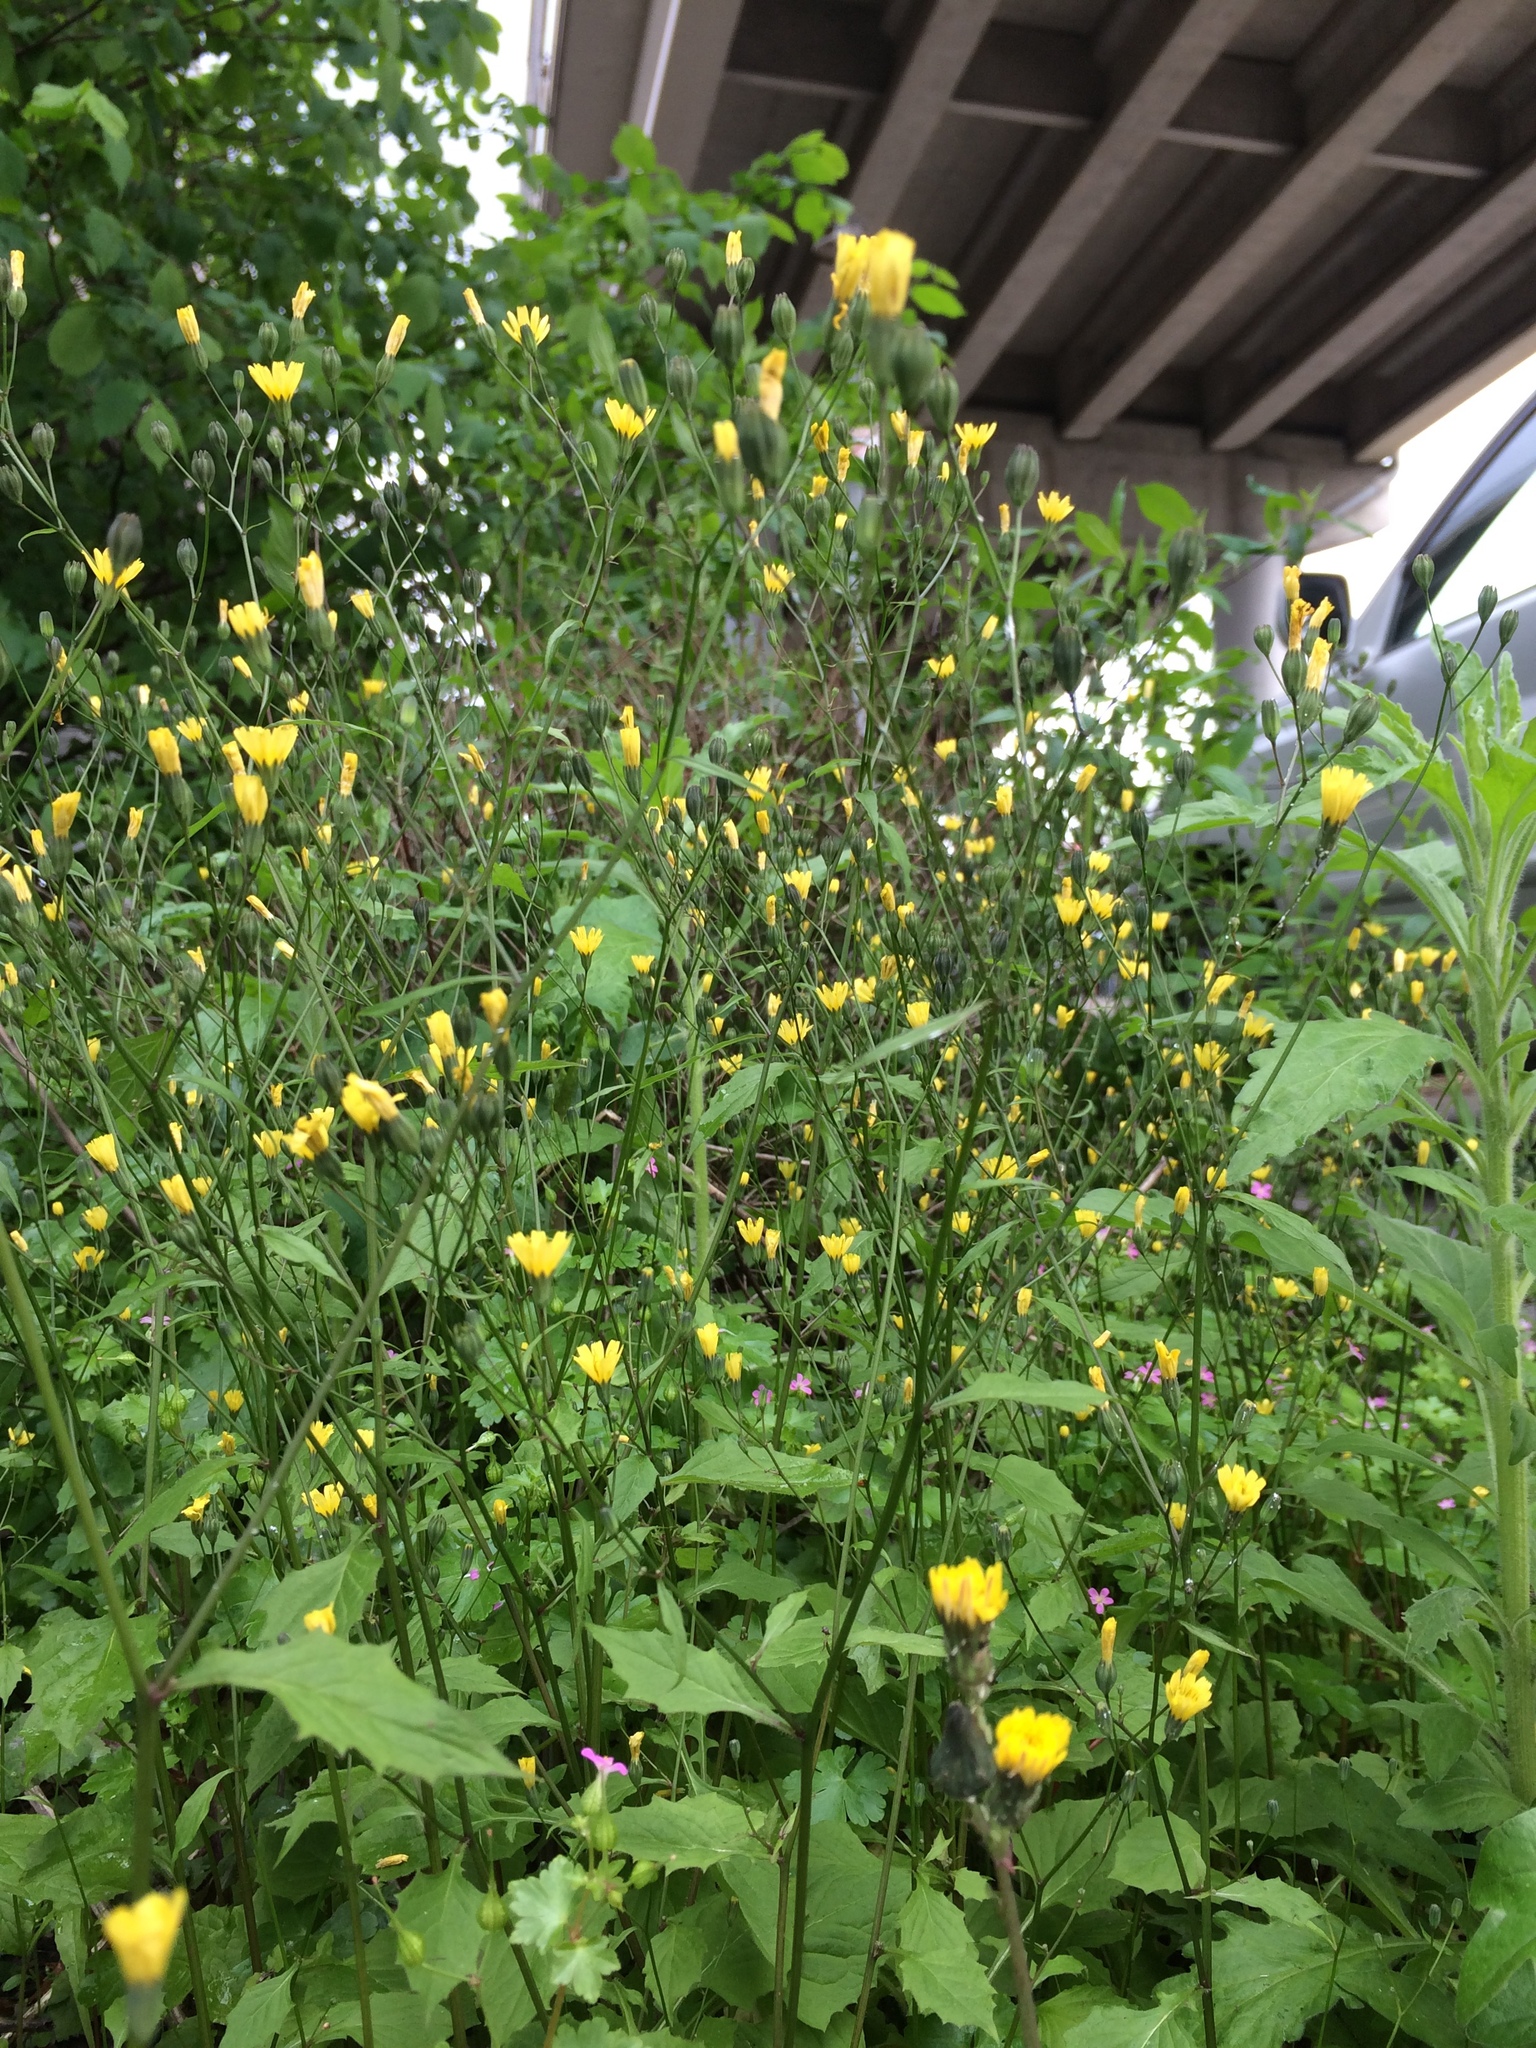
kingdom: Plantae
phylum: Tracheophyta
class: Magnoliopsida
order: Asterales
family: Asteraceae
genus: Lapsana
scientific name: Lapsana communis
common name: Nipplewort
